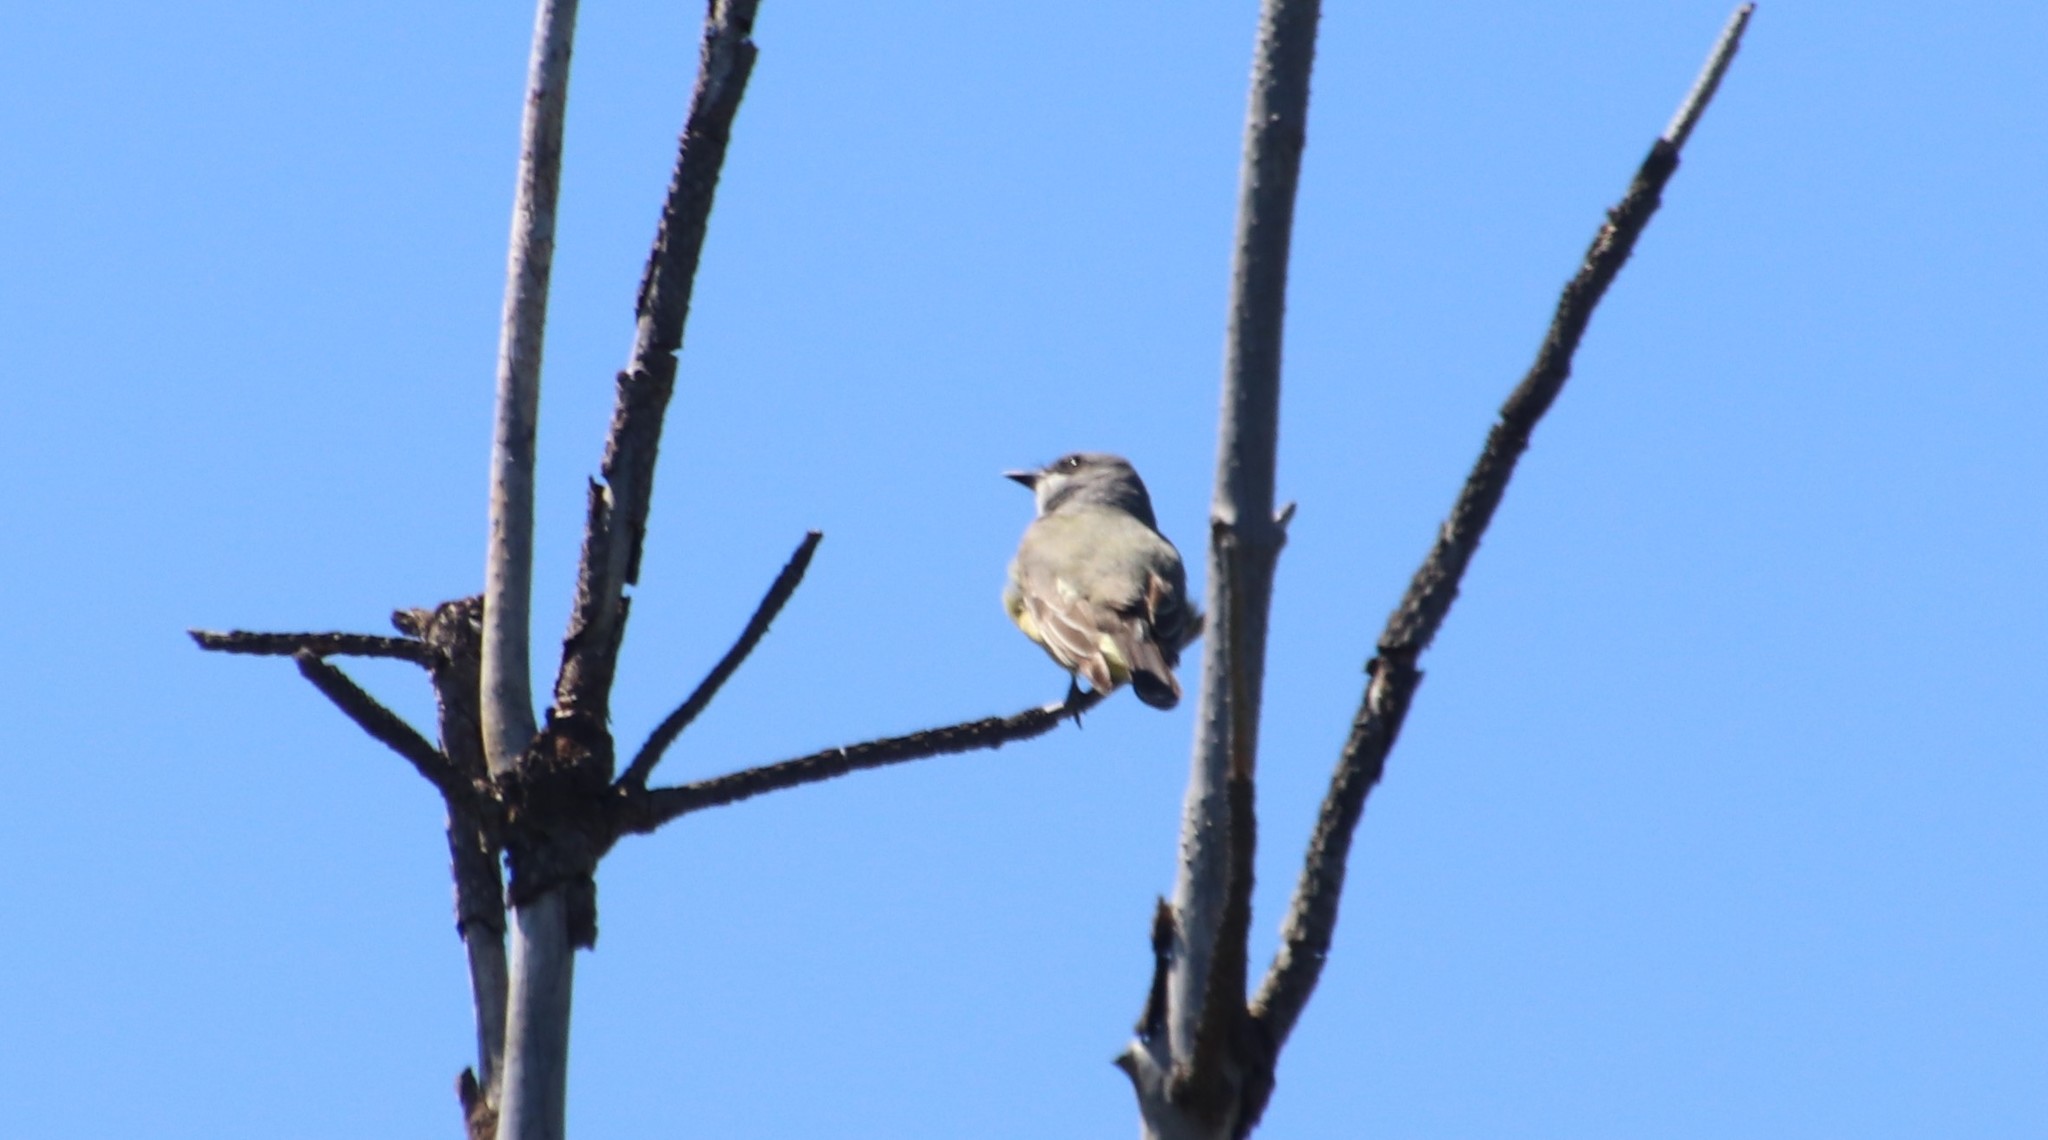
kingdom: Animalia
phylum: Chordata
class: Aves
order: Passeriformes
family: Tyrannidae
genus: Tyrannus
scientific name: Tyrannus vociferans
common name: Cassin's kingbird
